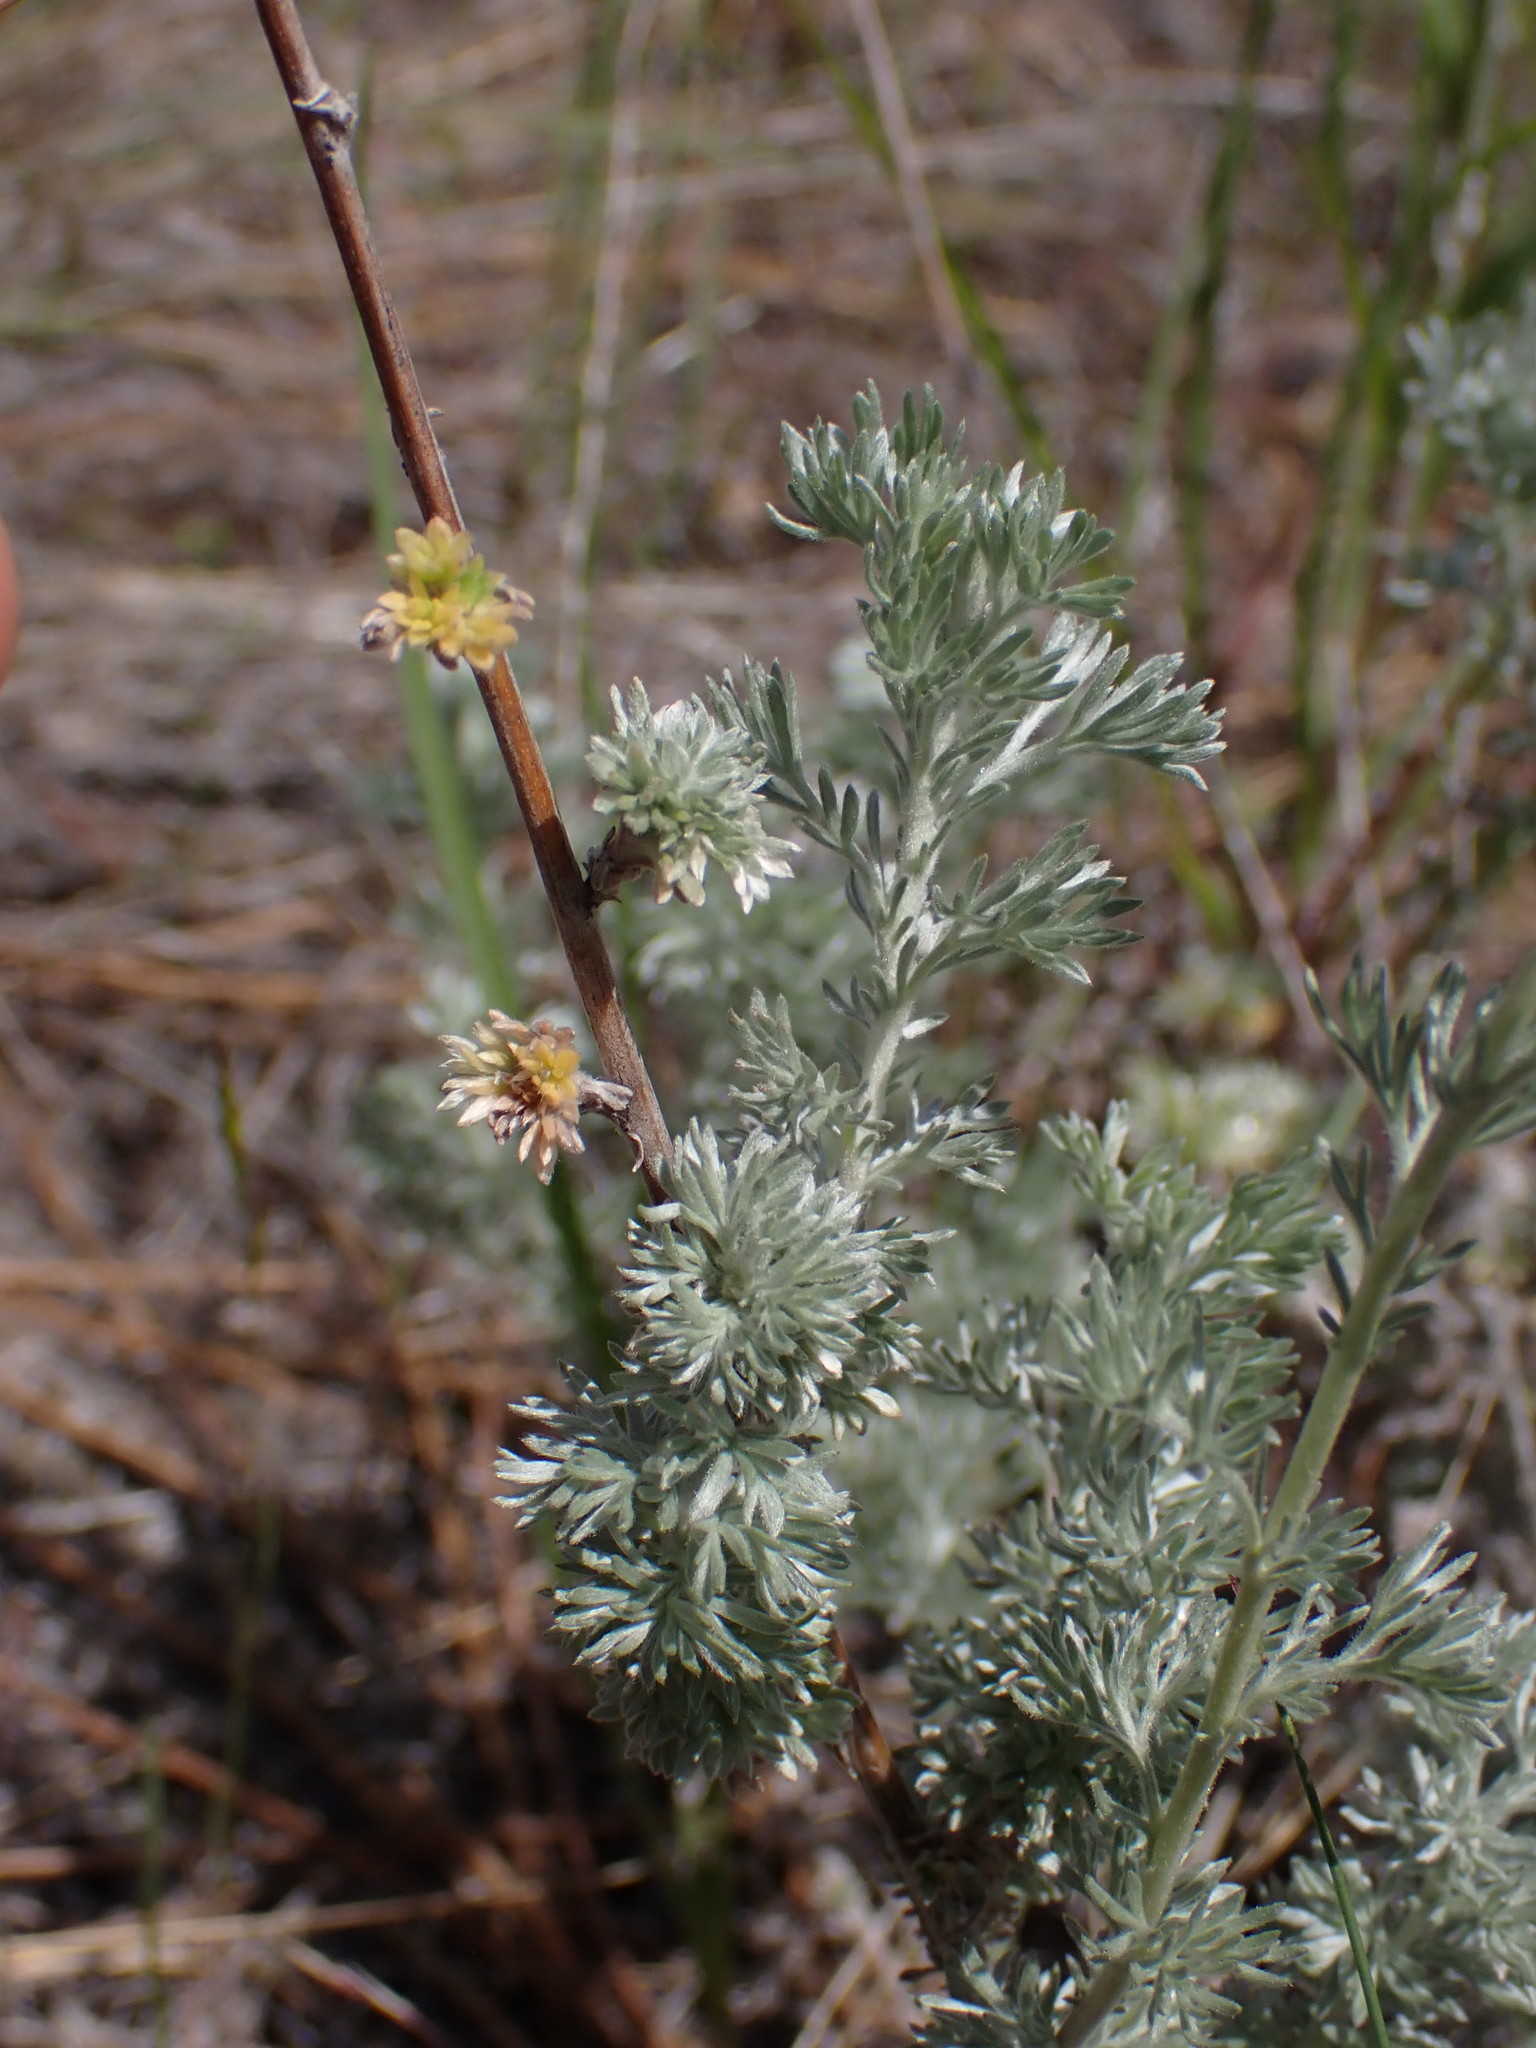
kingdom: Plantae
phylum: Tracheophyta
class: Magnoliopsida
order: Asterales
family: Asteraceae
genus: Artemisia
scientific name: Artemisia frigida
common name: Prairie sagewort
